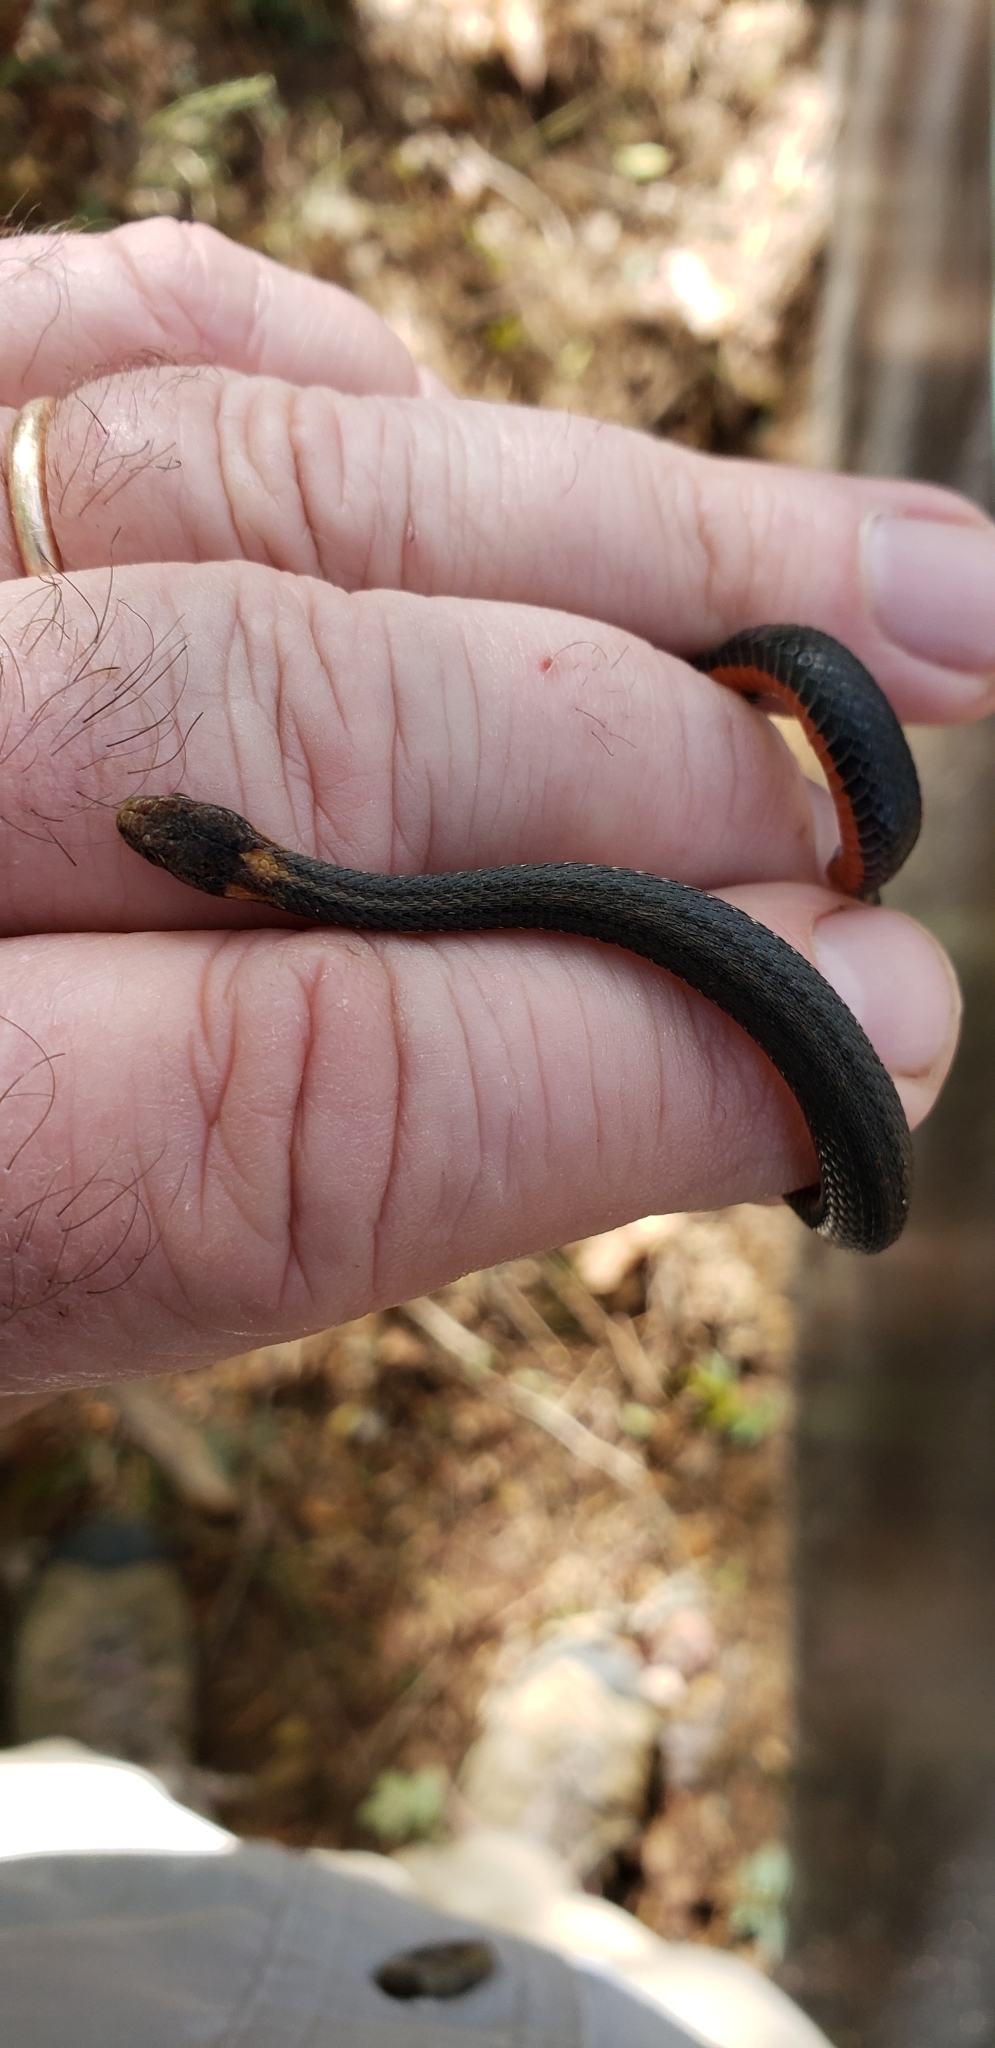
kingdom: Animalia
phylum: Chordata
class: Squamata
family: Colubridae
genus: Storeria
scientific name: Storeria occipitomaculata
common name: Redbelly snake
